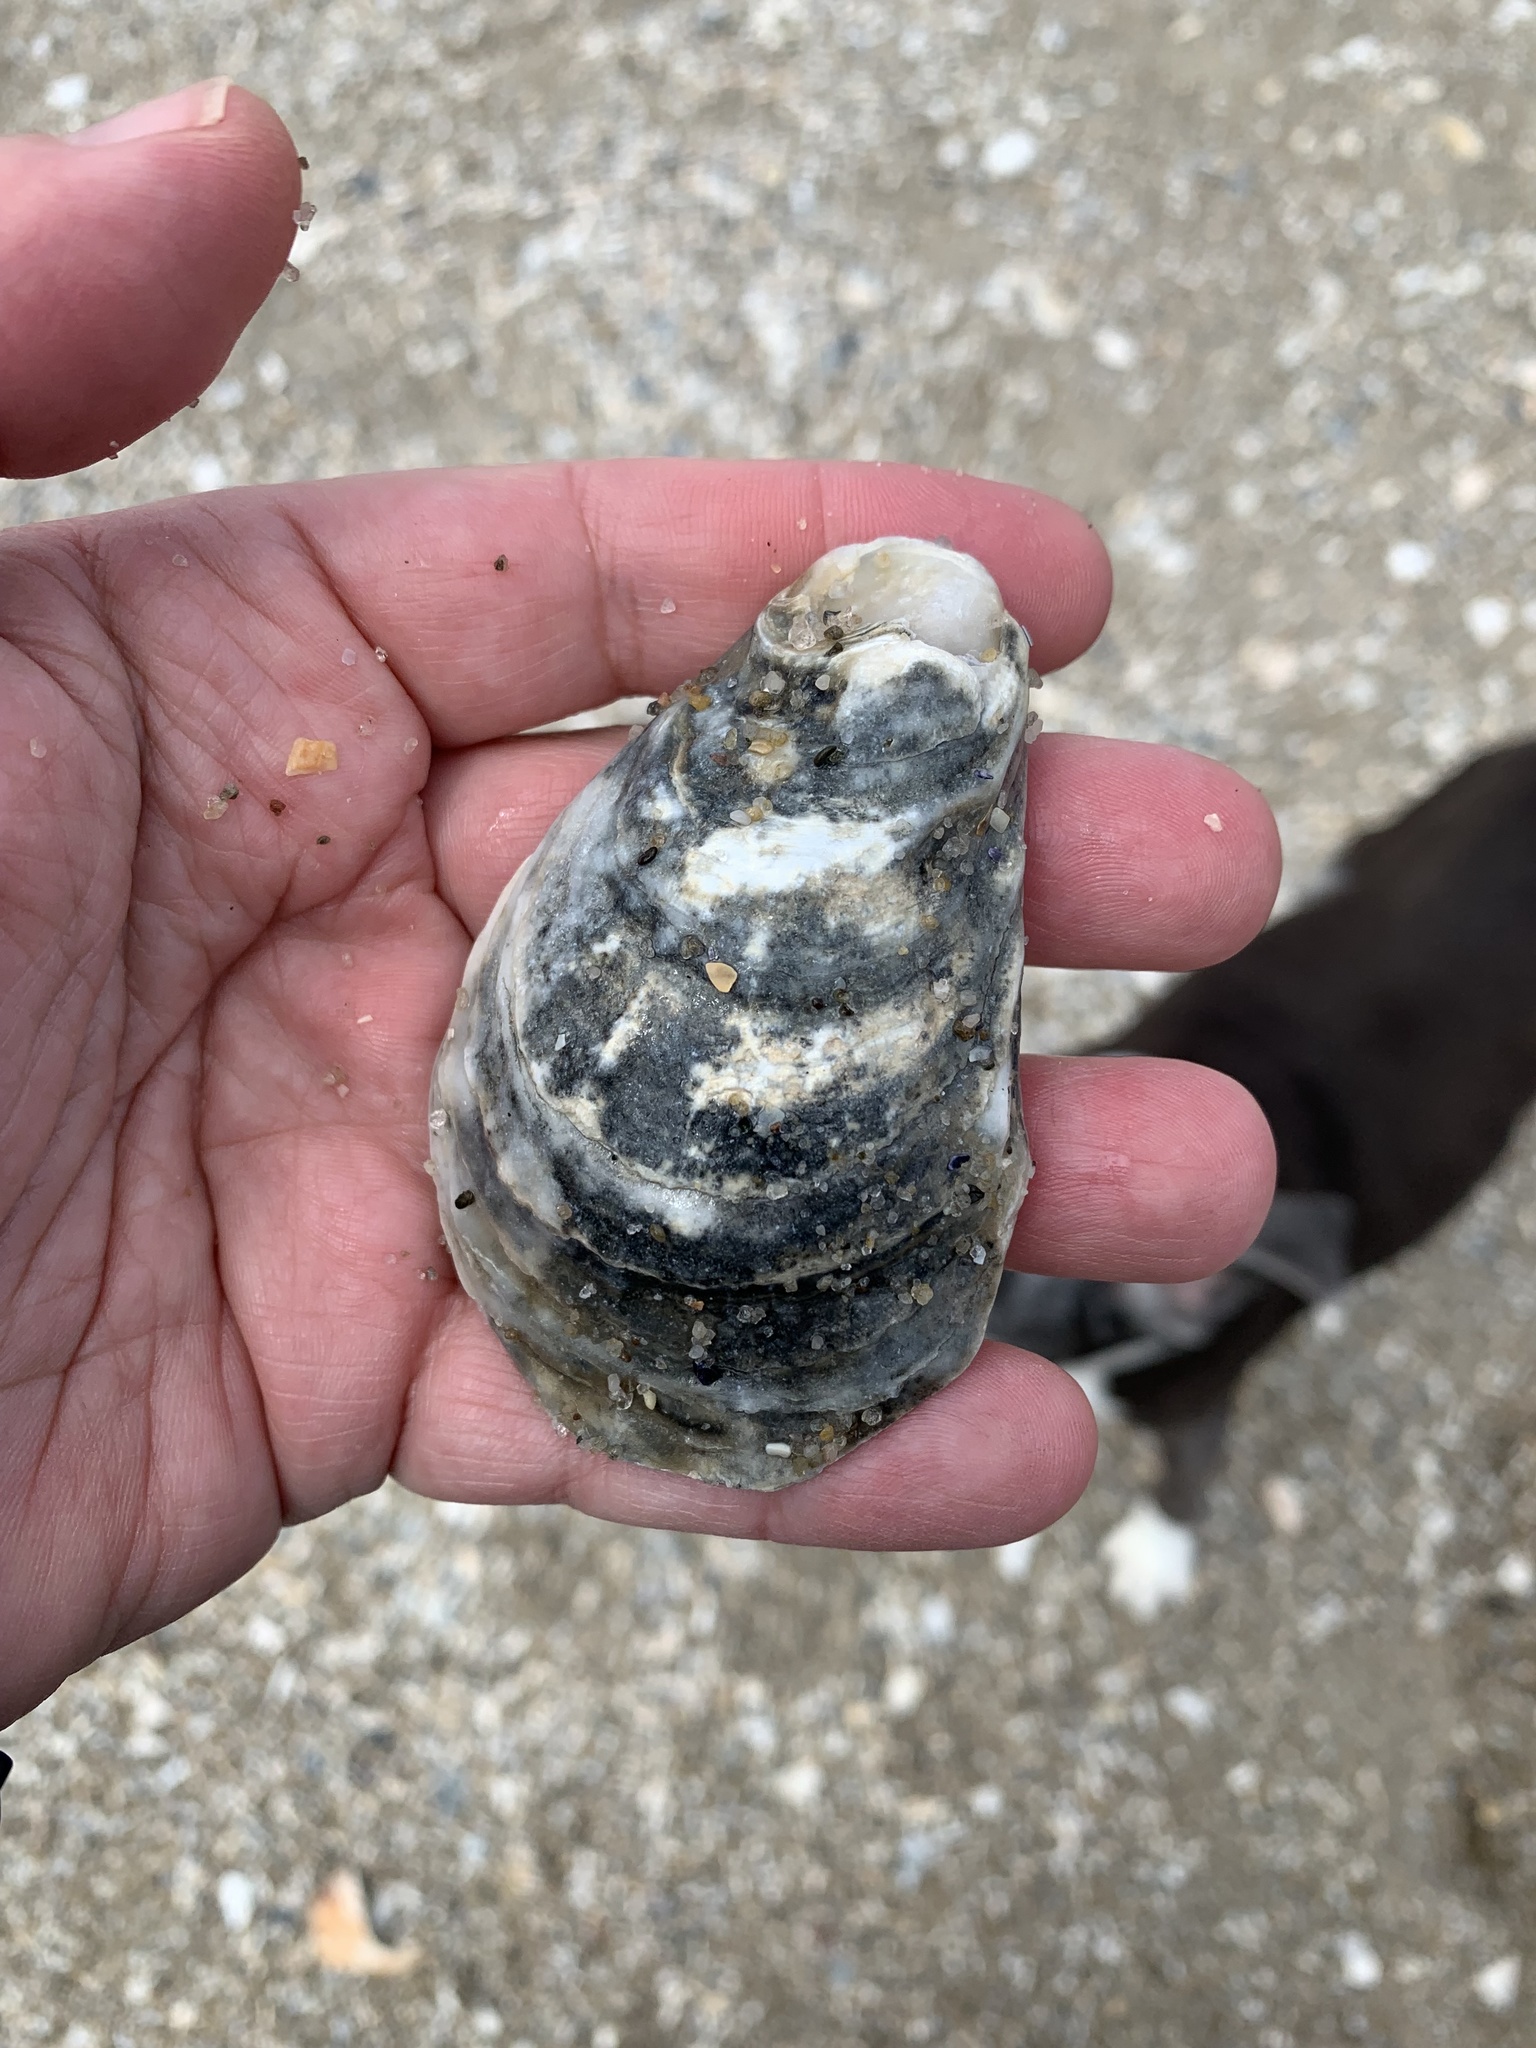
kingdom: Animalia
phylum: Mollusca
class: Bivalvia
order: Ostreida
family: Ostreidae
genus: Crassostrea
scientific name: Crassostrea virginica
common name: American oyster
